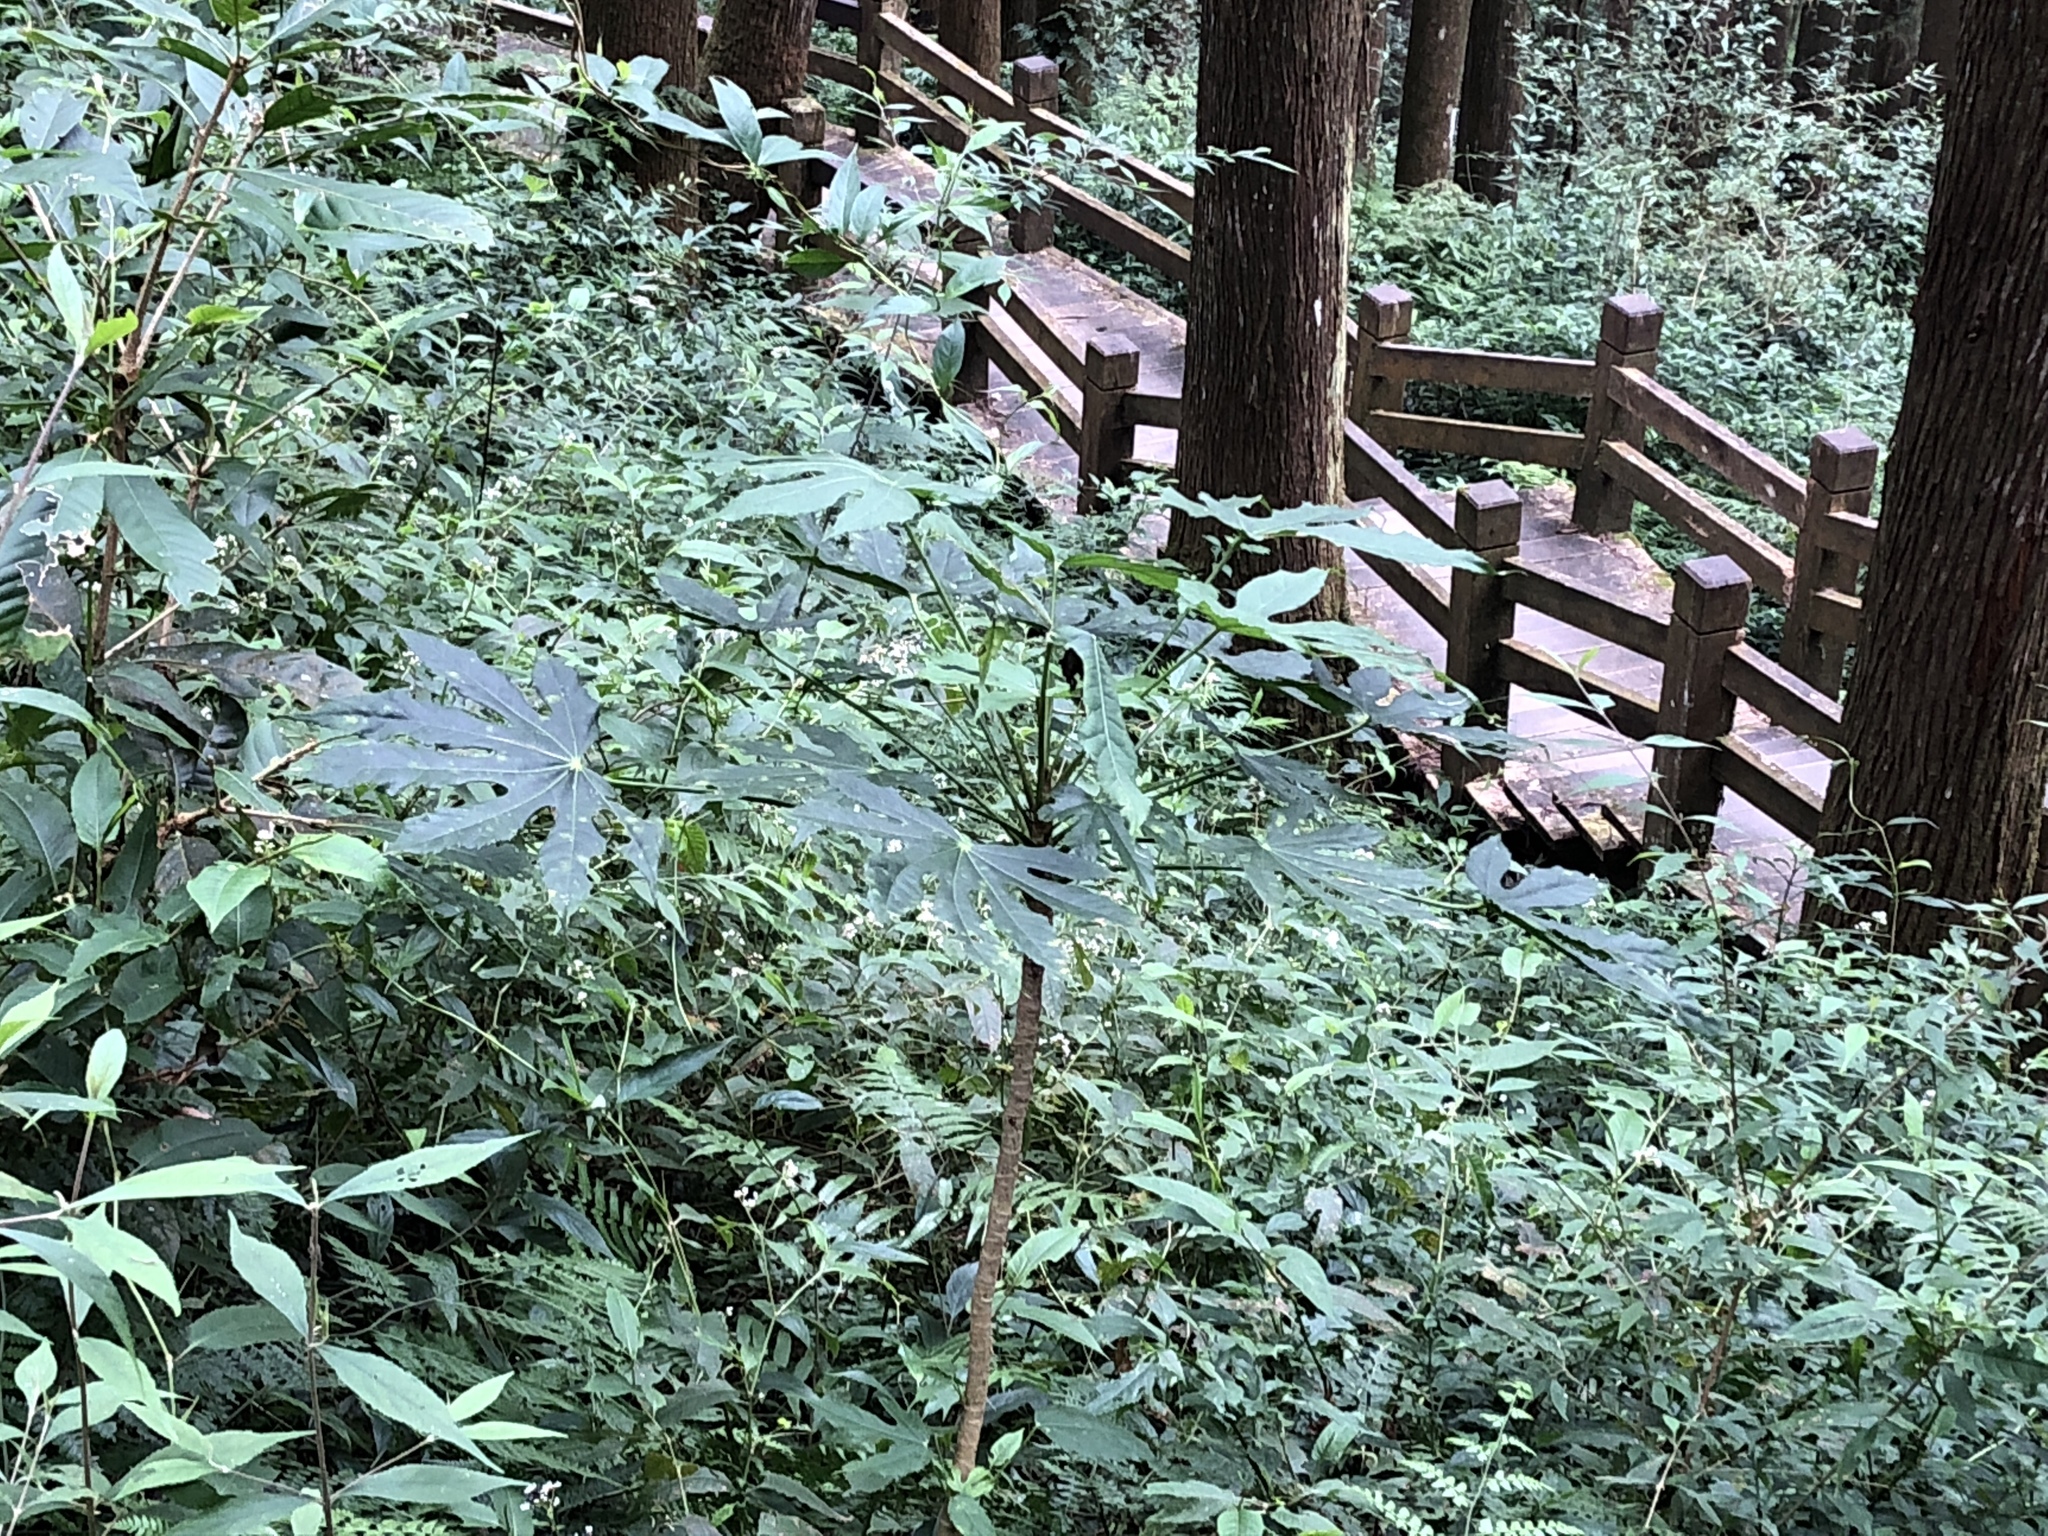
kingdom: Plantae
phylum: Tracheophyta
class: Magnoliopsida
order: Apiales
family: Araliaceae
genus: Fatsia
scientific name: Fatsia polycarpa
